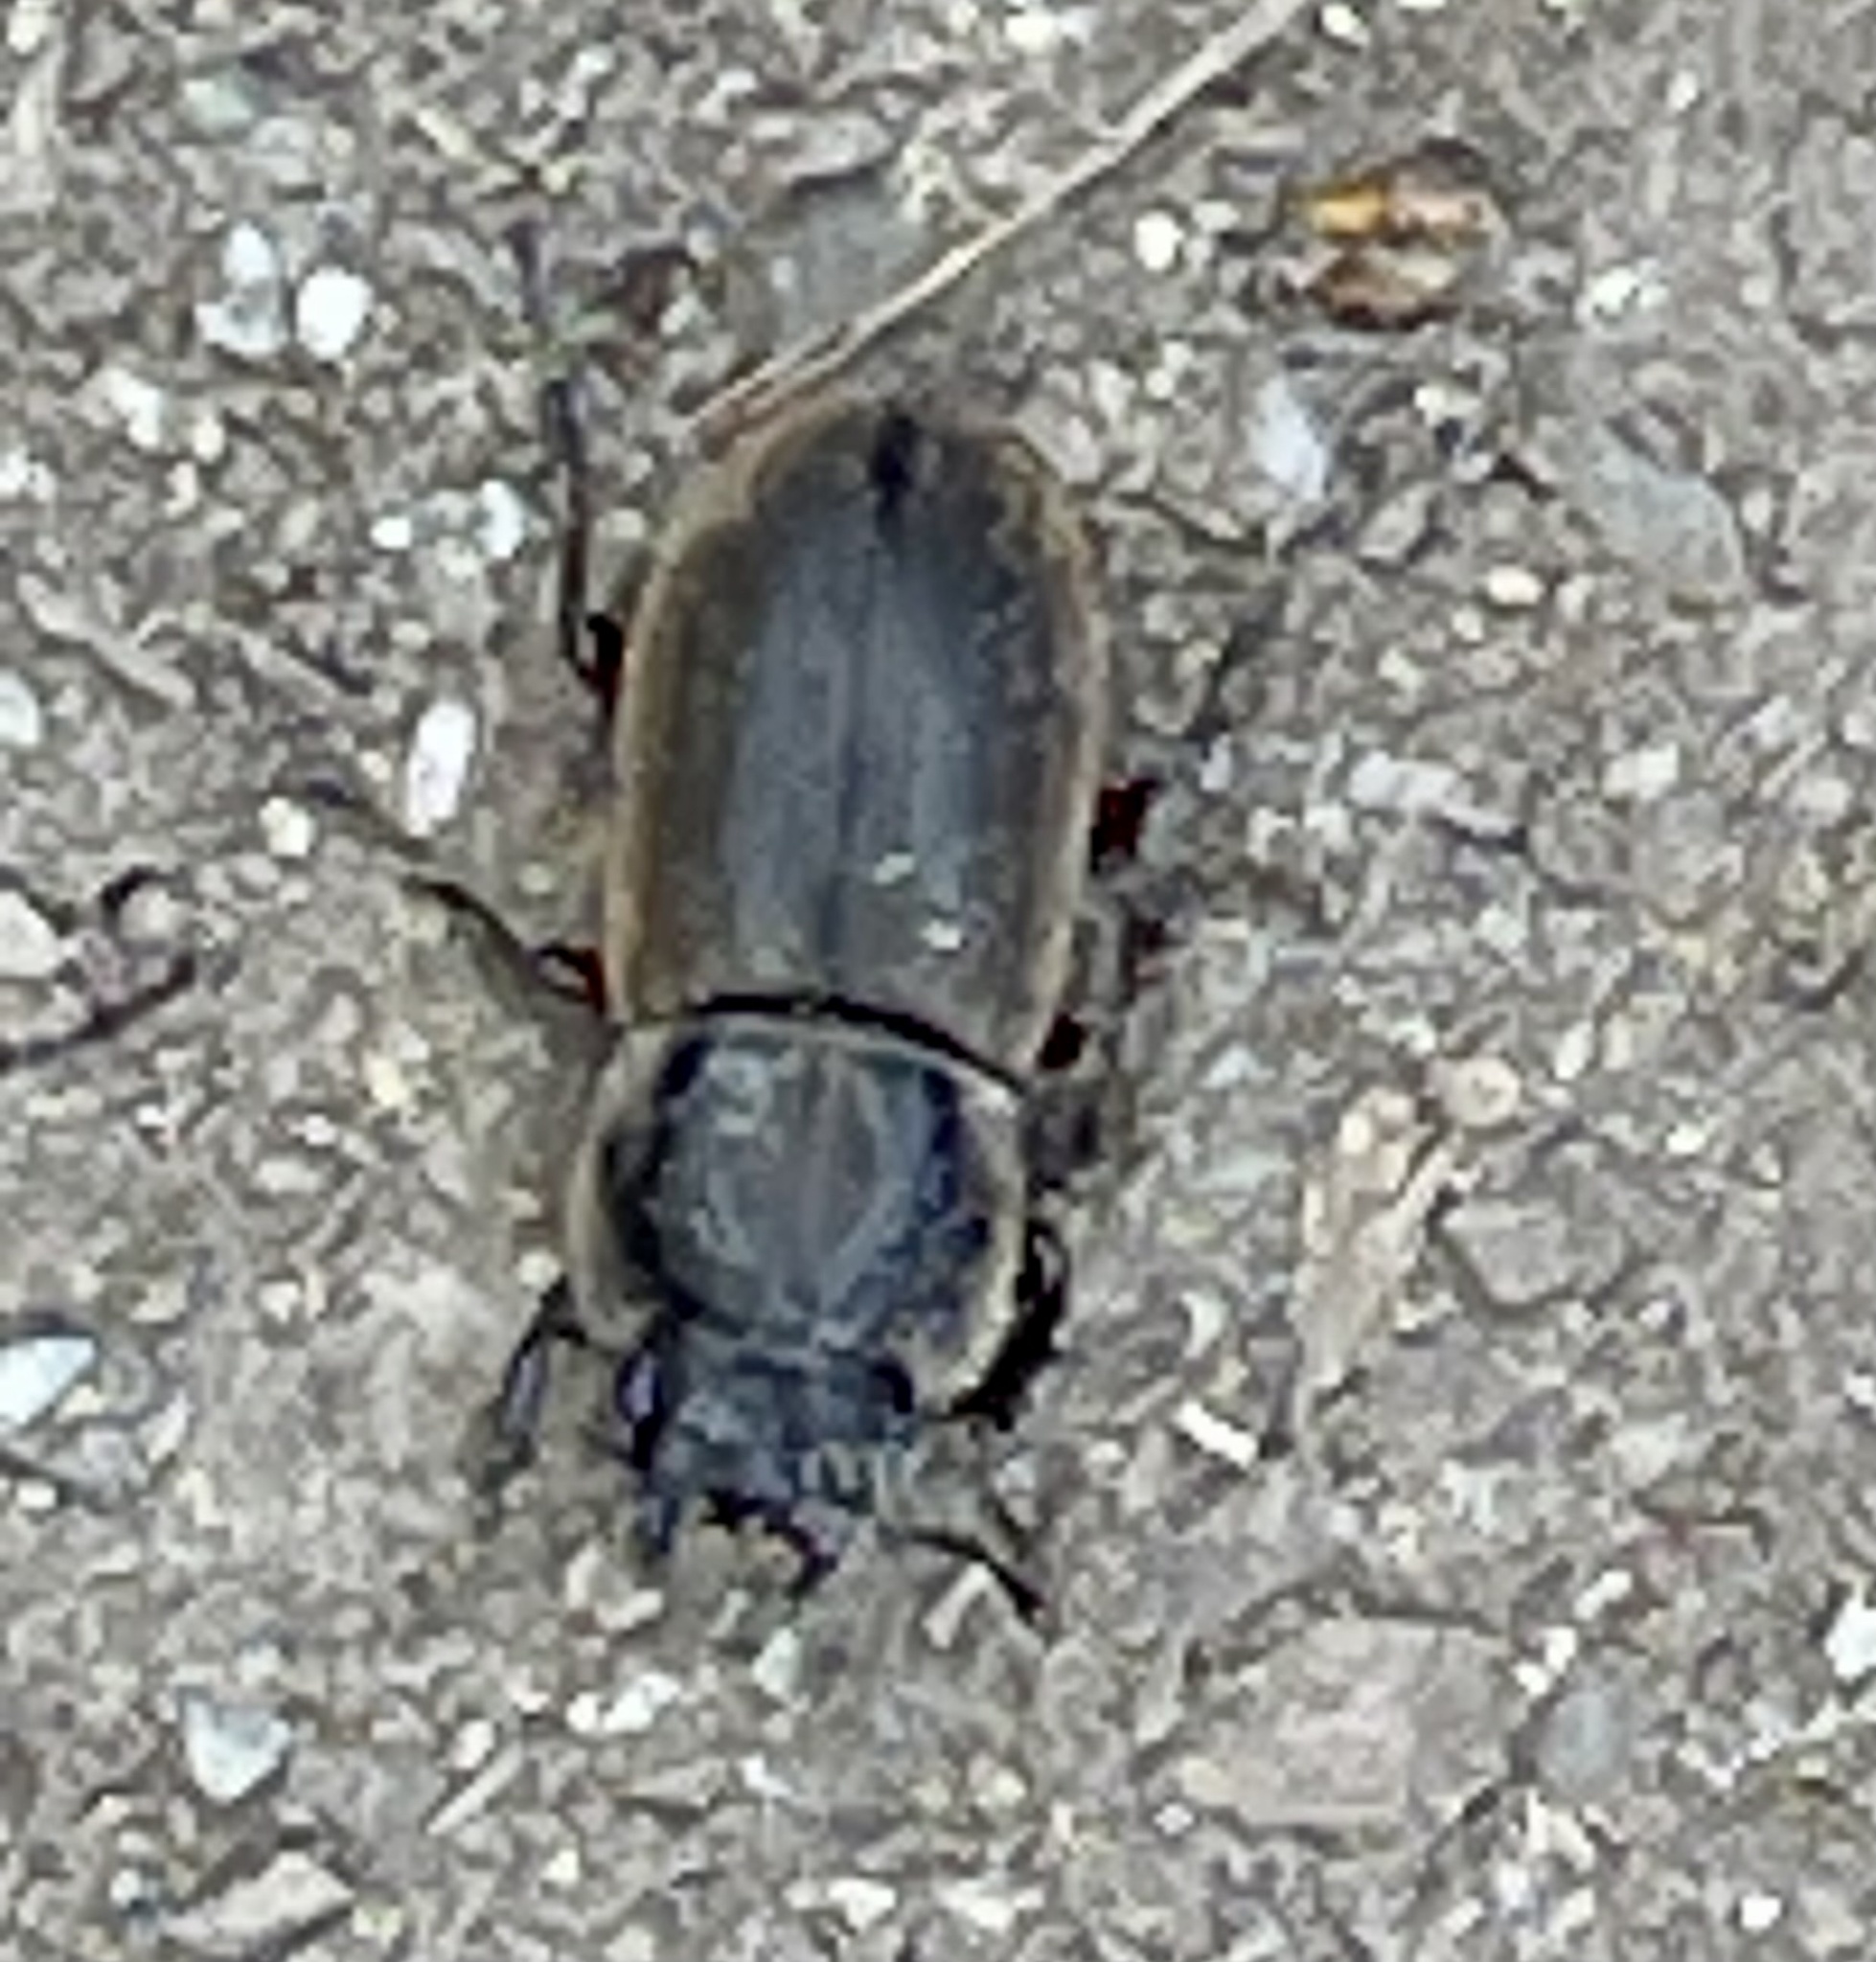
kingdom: Animalia
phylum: Arthropoda
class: Insecta
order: Coleoptera
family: Lucanidae
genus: Erichius
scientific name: Erichius femoralis
